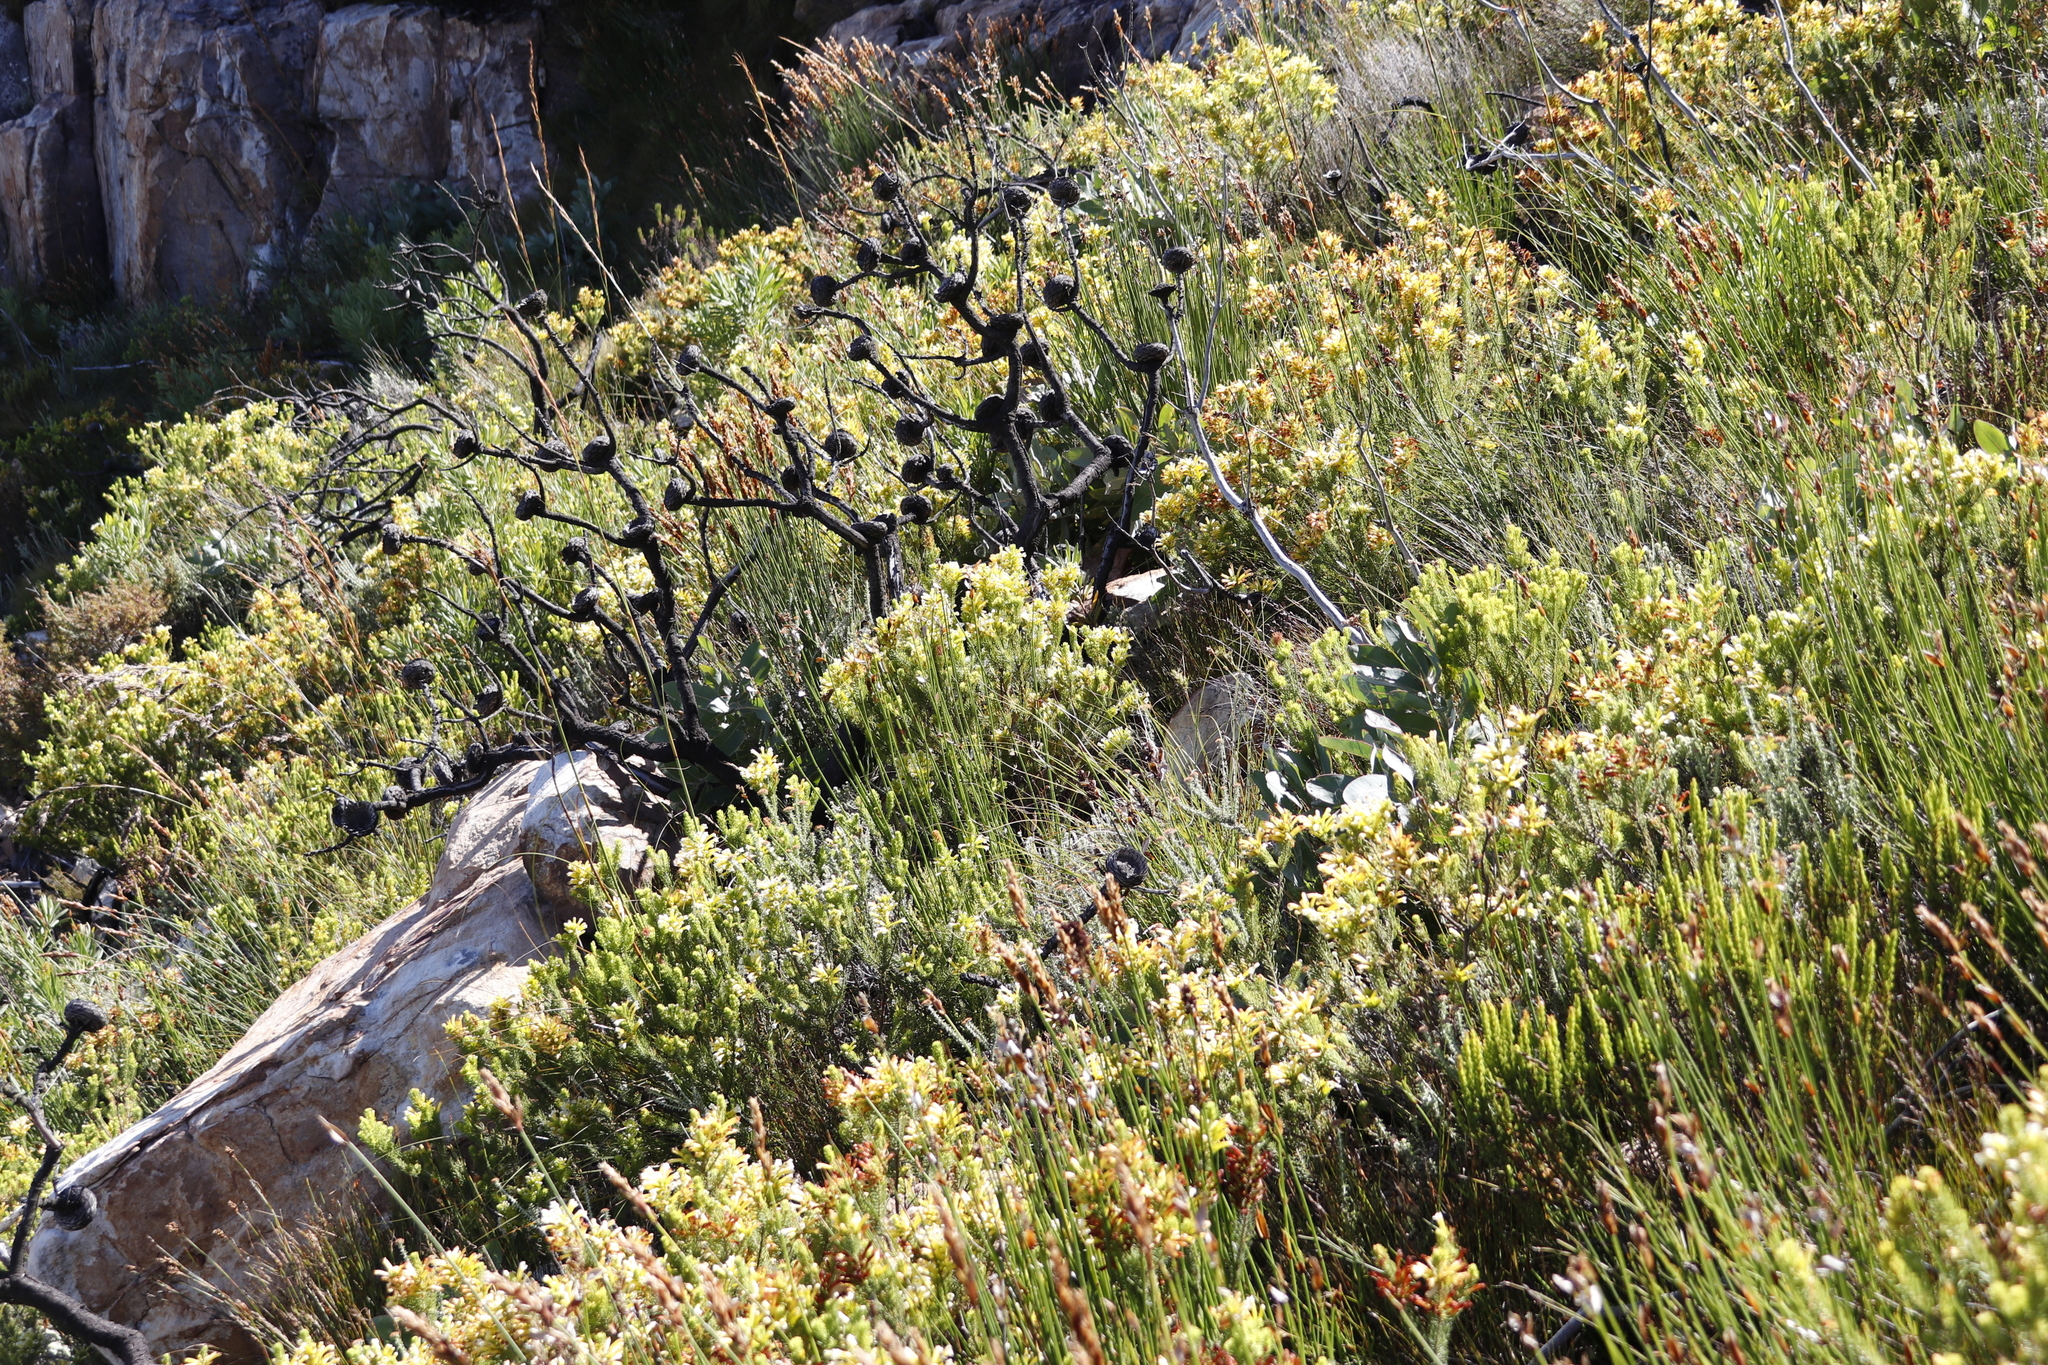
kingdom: Plantae
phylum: Tracheophyta
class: Magnoliopsida
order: Proteales
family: Proteaceae
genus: Protea
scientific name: Protea magnifica
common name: Bearded sugarbush
